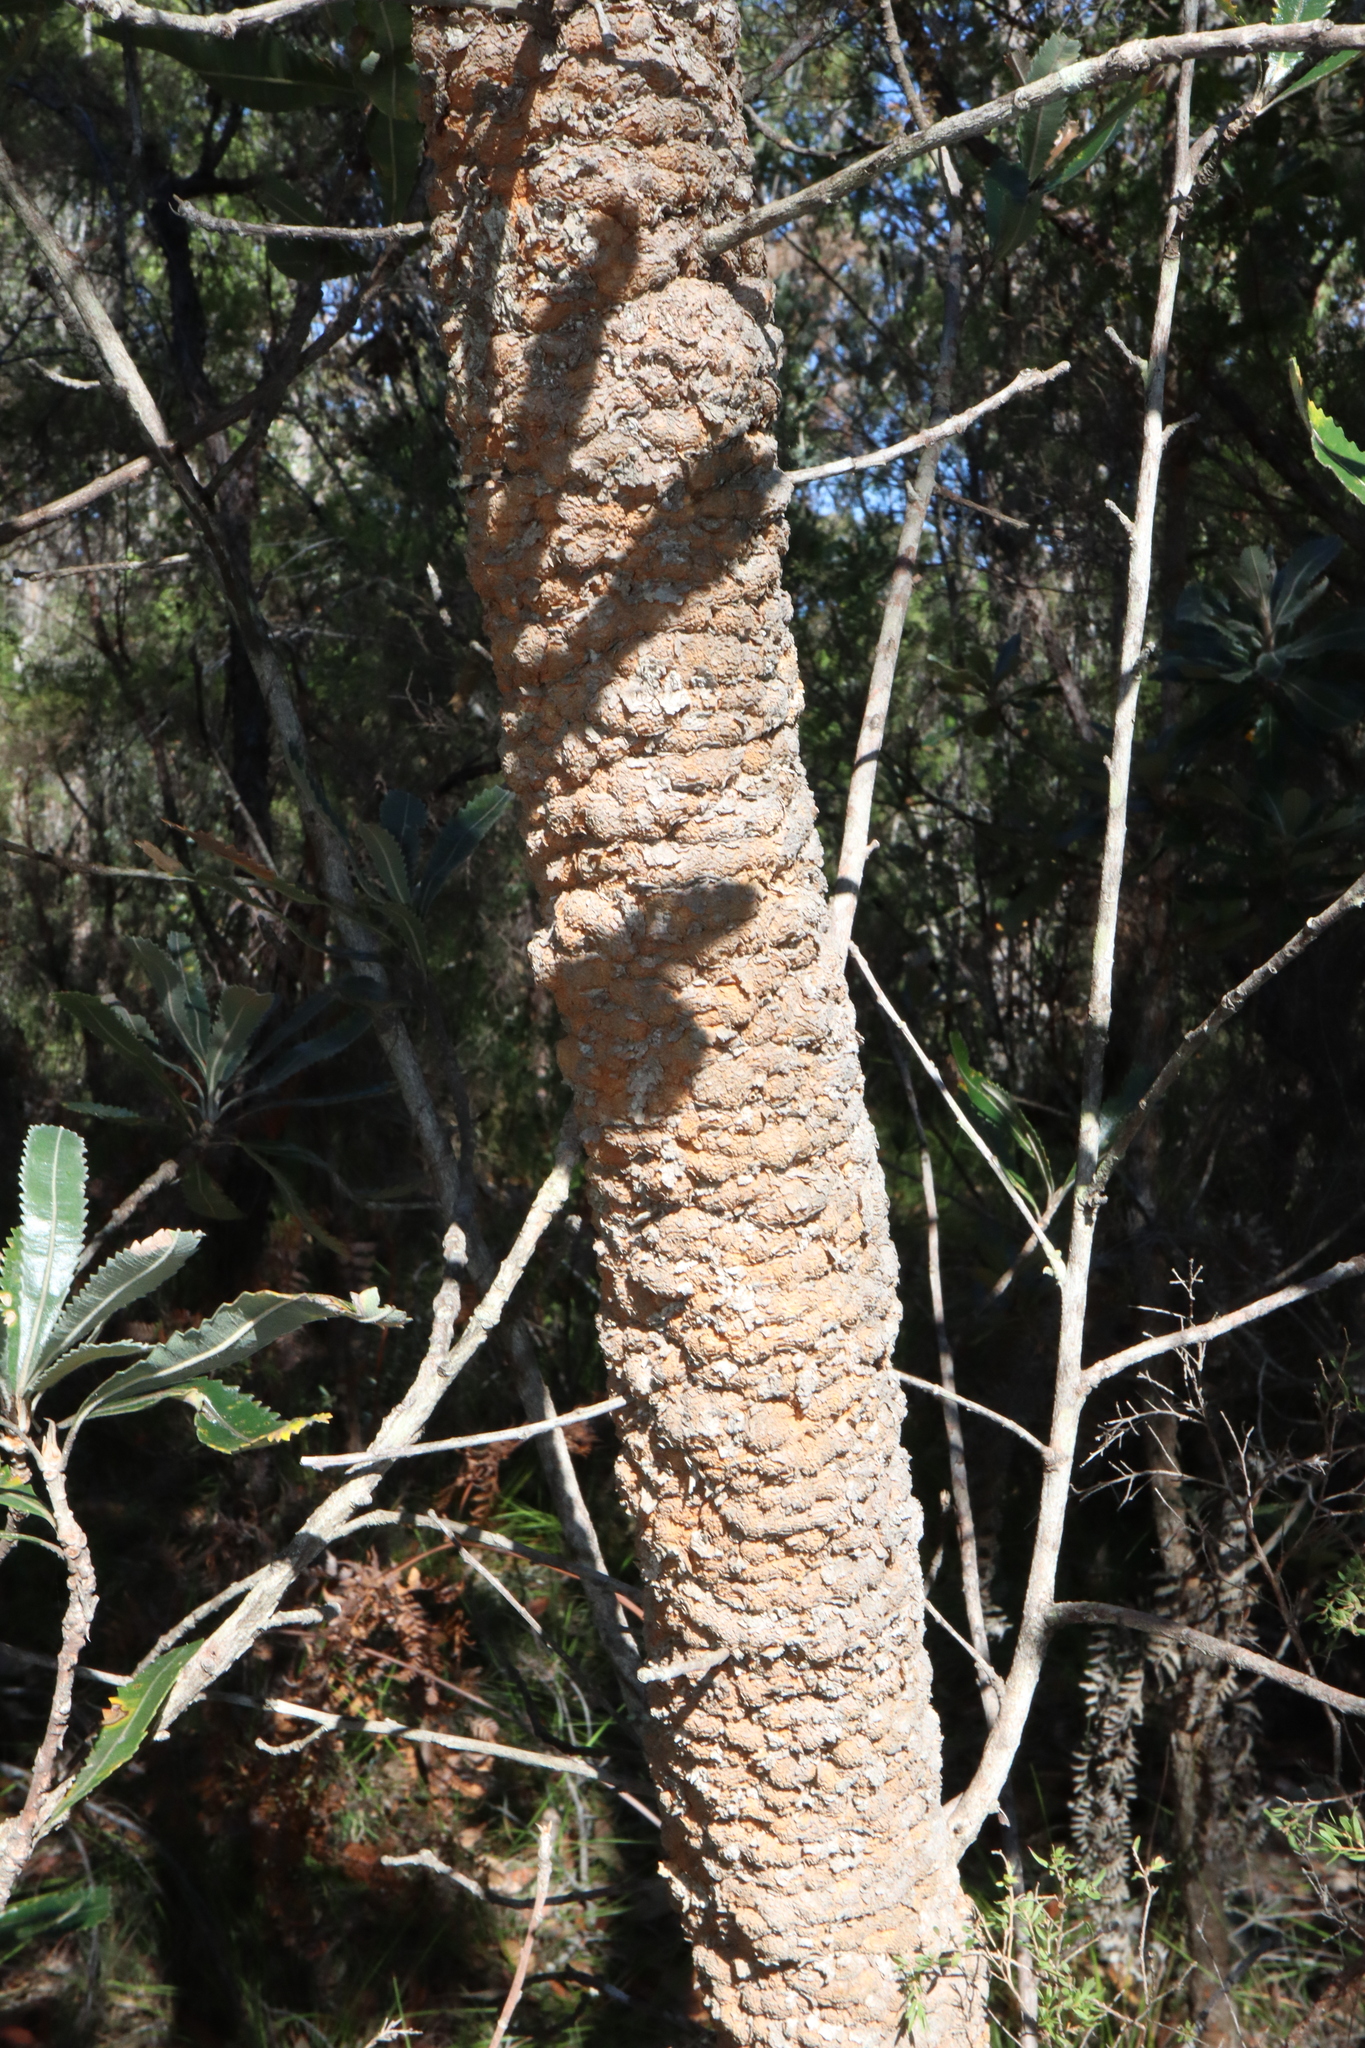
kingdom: Plantae
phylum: Tracheophyta
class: Magnoliopsida
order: Proteales
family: Proteaceae
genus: Banksia
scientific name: Banksia serrata
